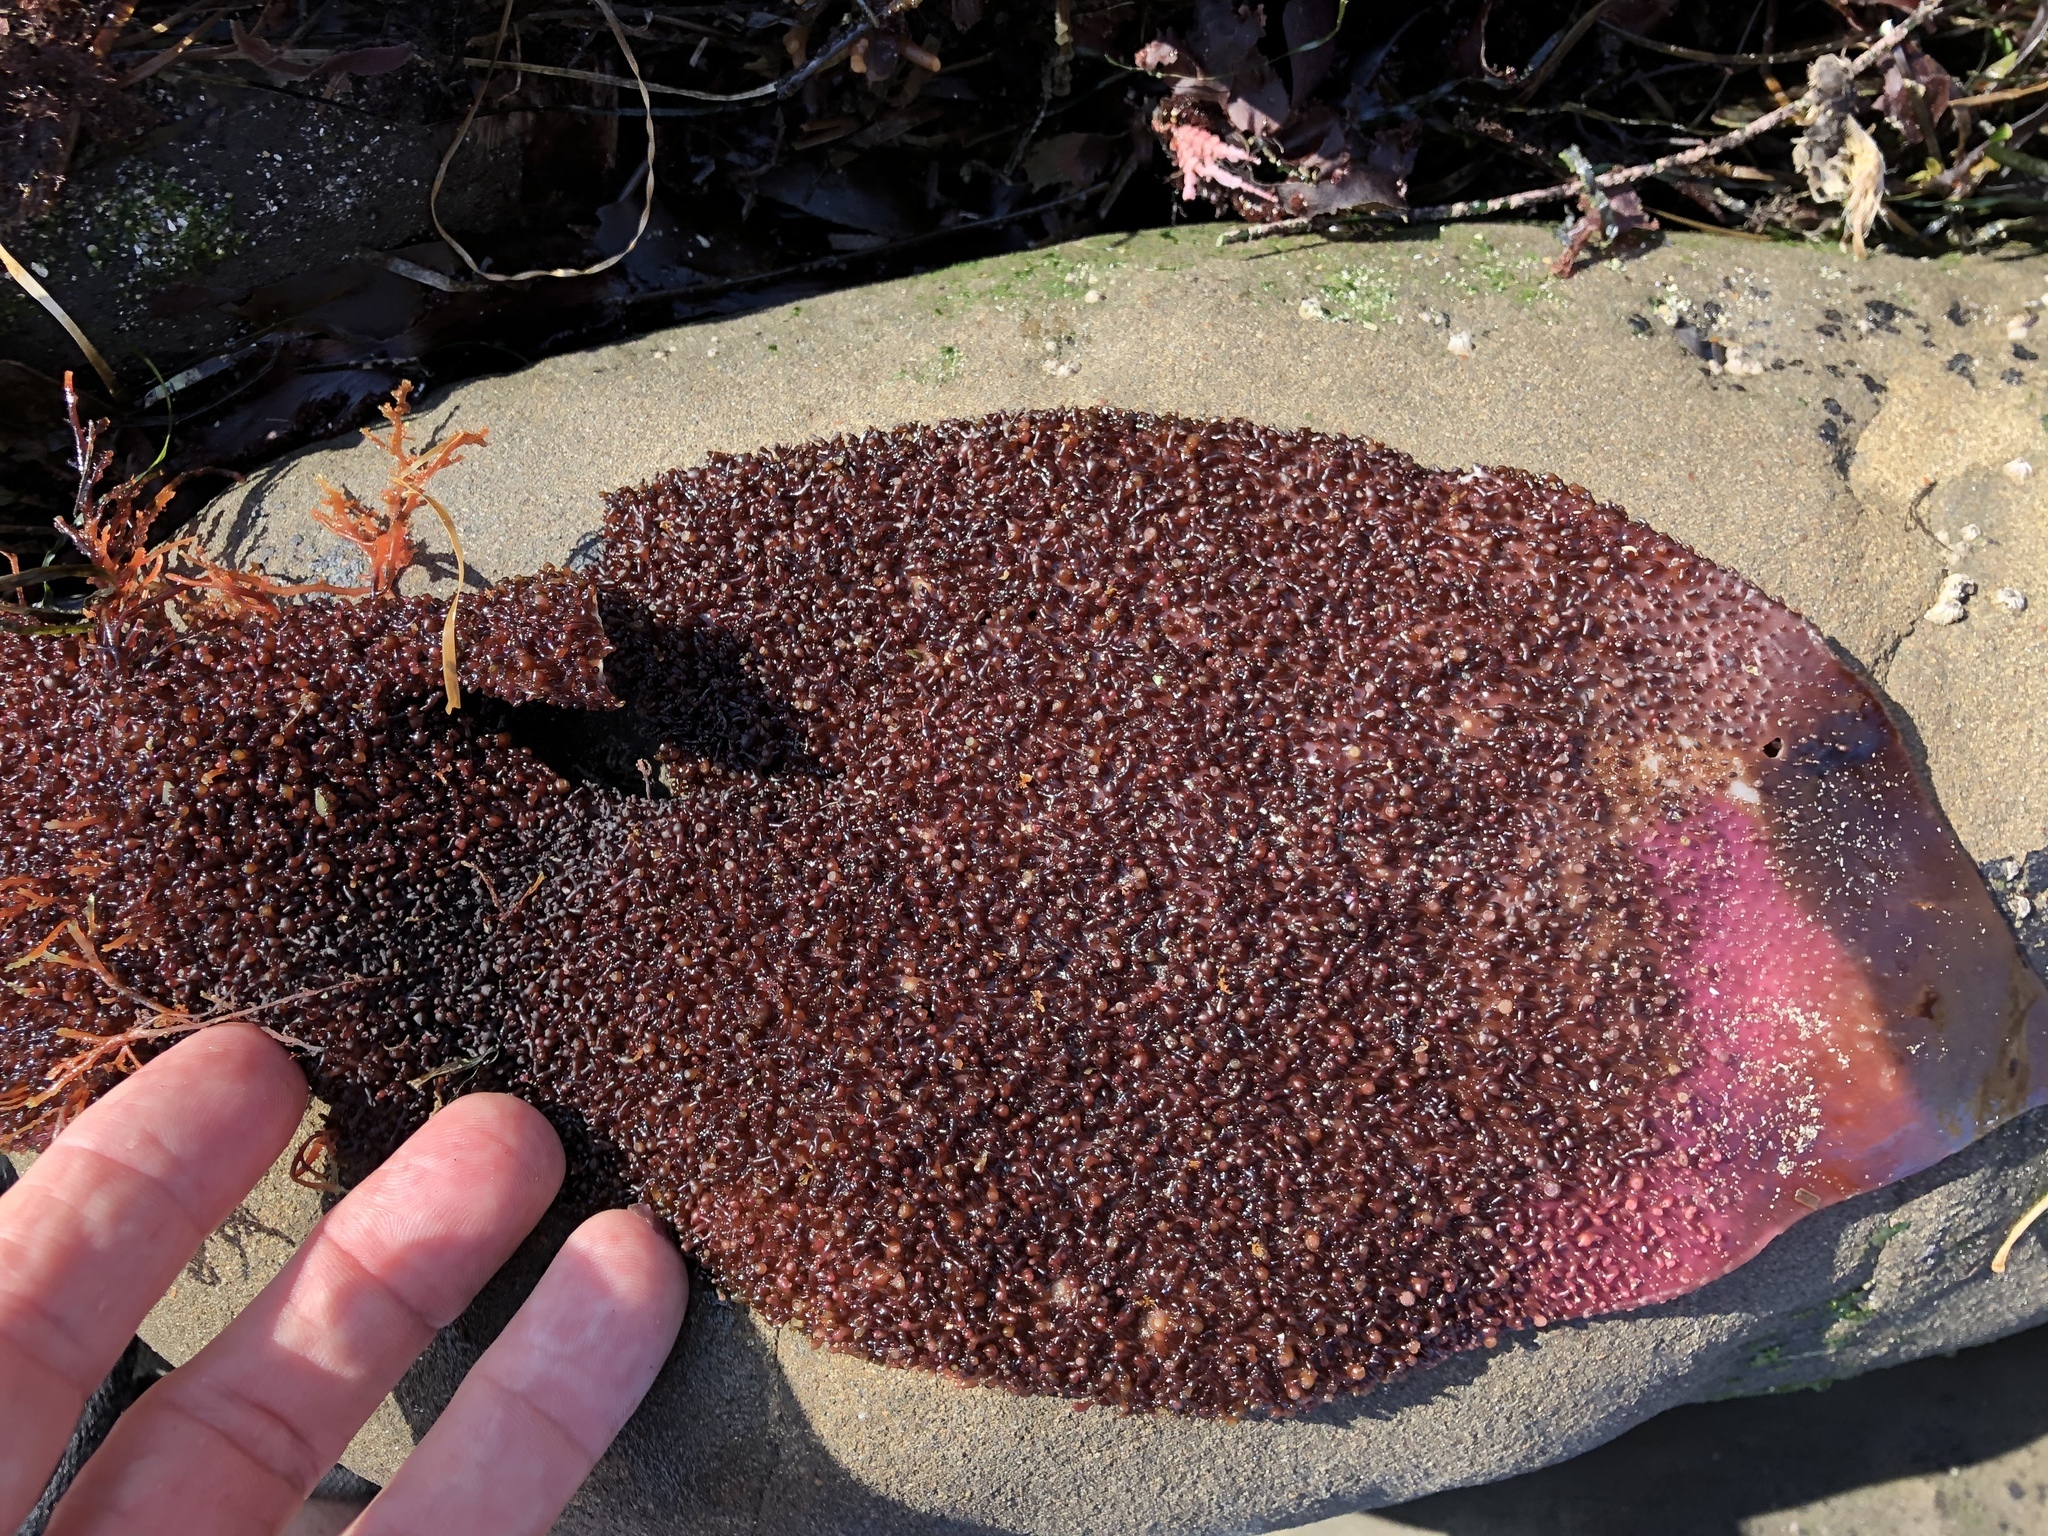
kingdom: Plantae
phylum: Rhodophyta
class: Florideophyceae
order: Gigartinales
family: Gigartinaceae
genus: Chondracanthus
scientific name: Chondracanthus exasperatus
